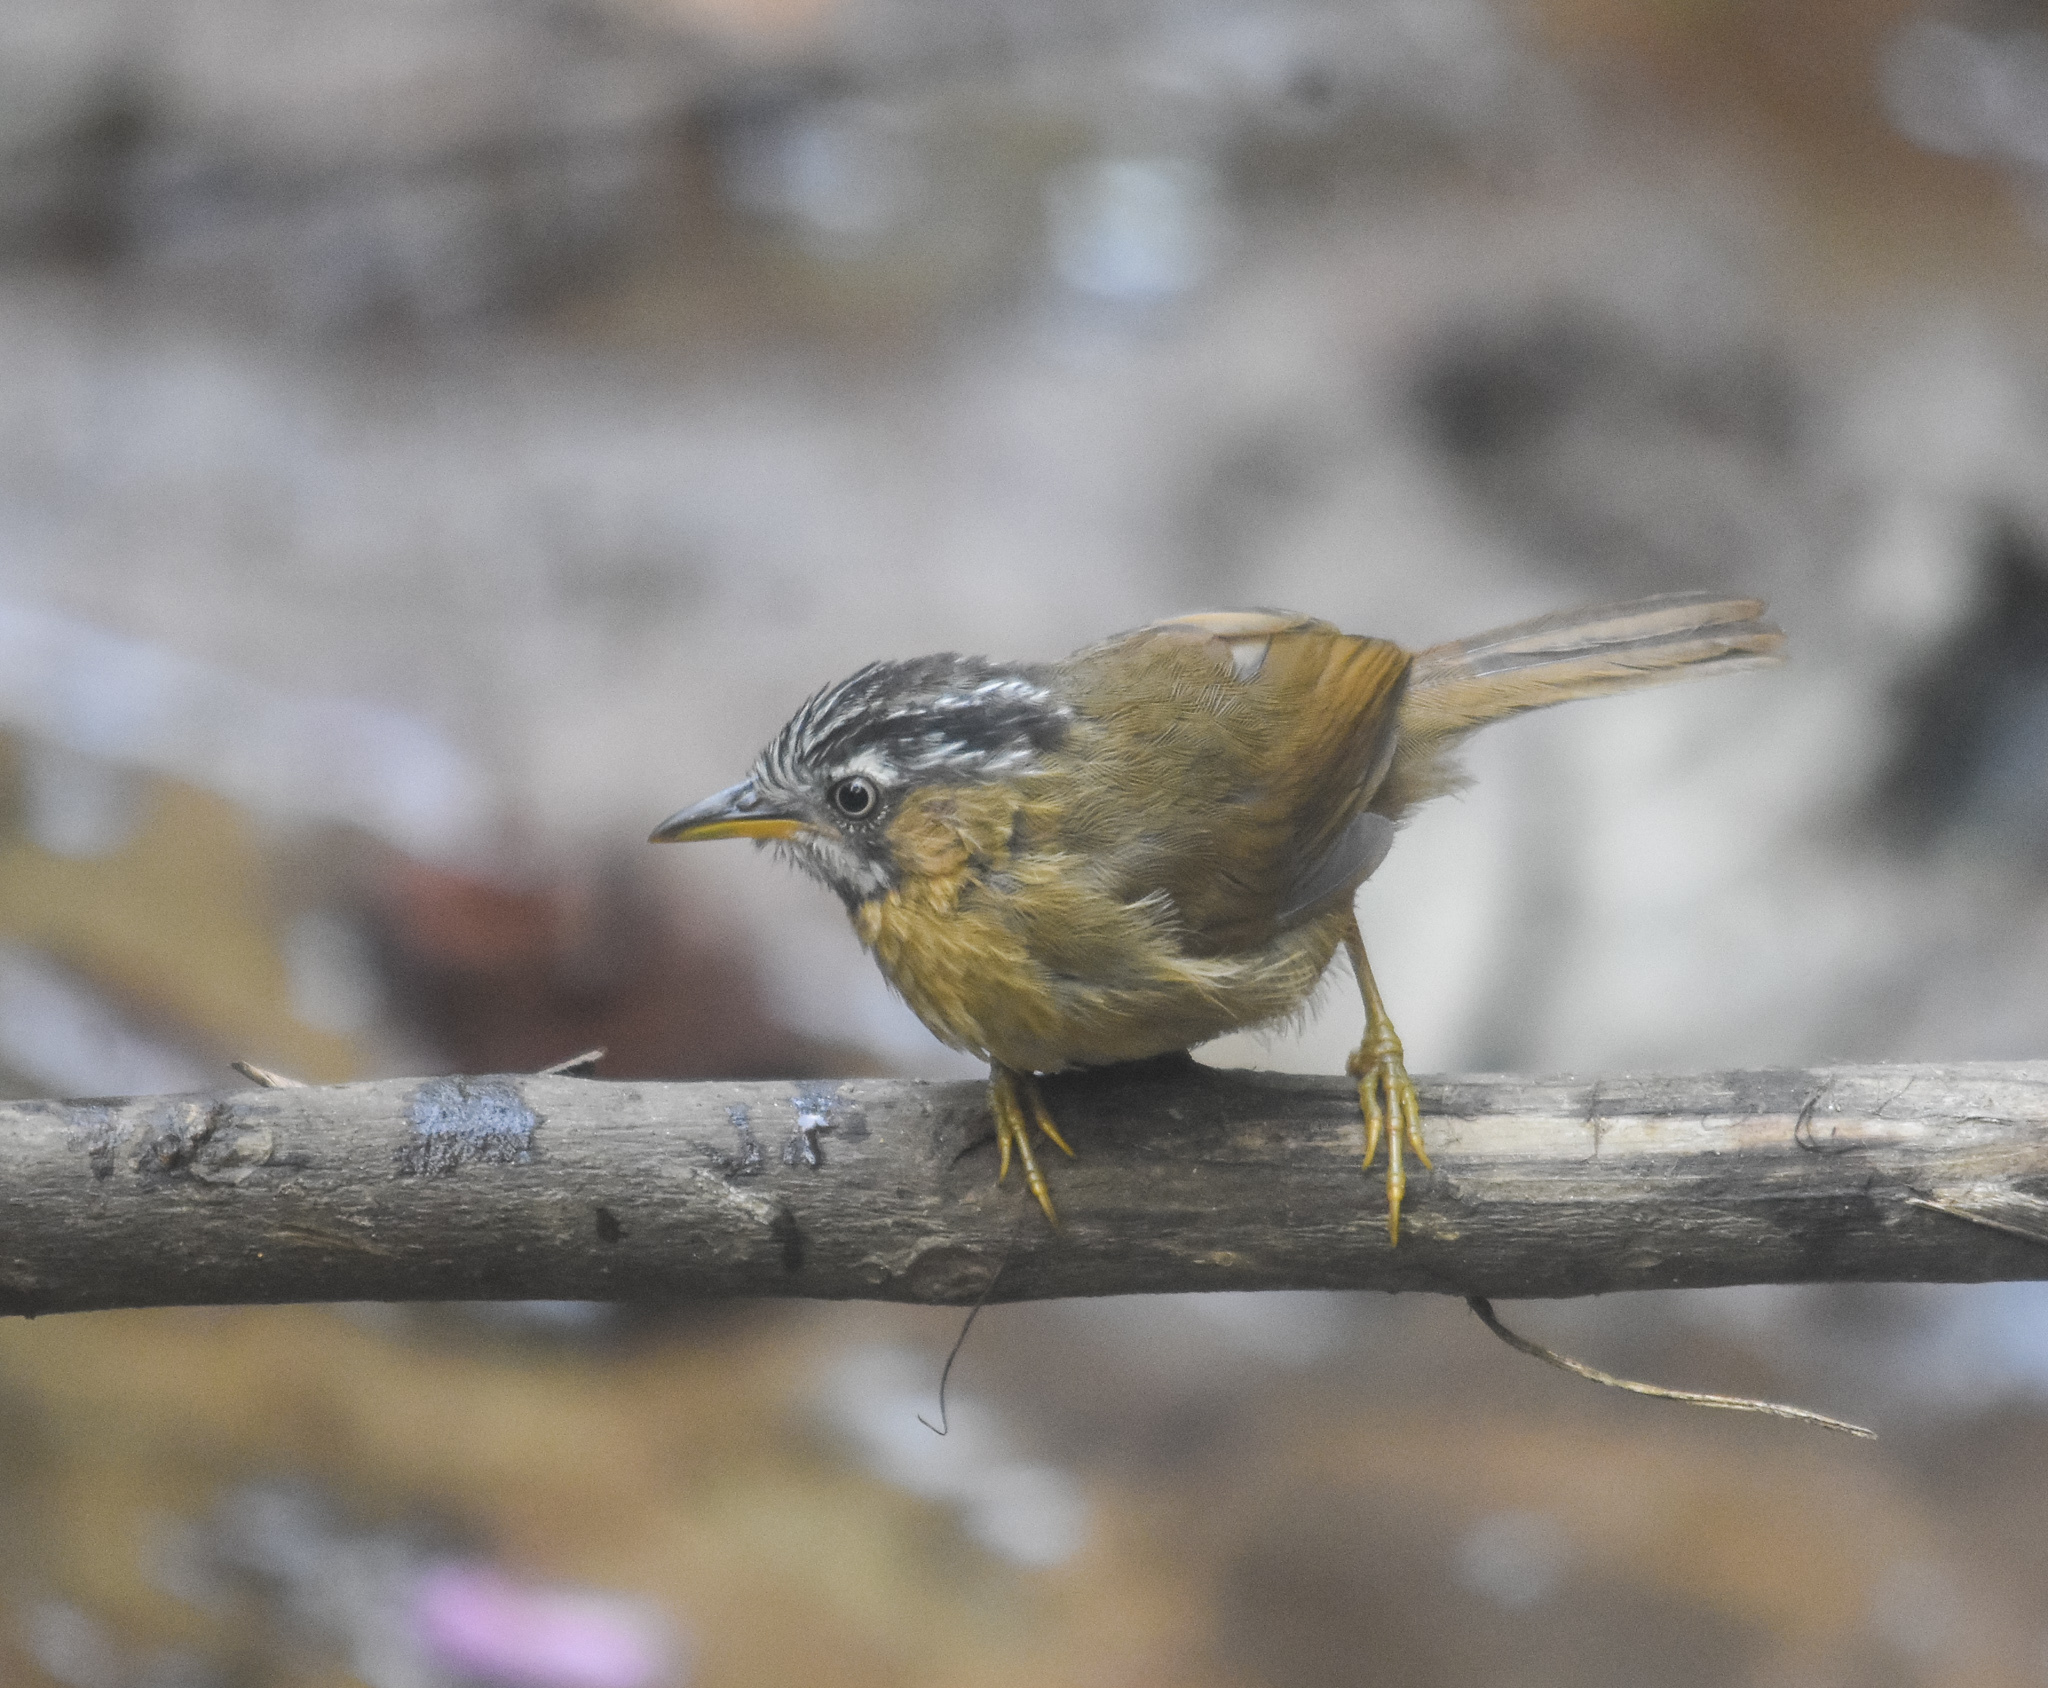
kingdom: Animalia
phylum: Chordata
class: Aves
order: Passeriformes
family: Timaliidae
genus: Stachyris
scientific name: Stachyris nigriceps
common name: Grey-throated babbler
